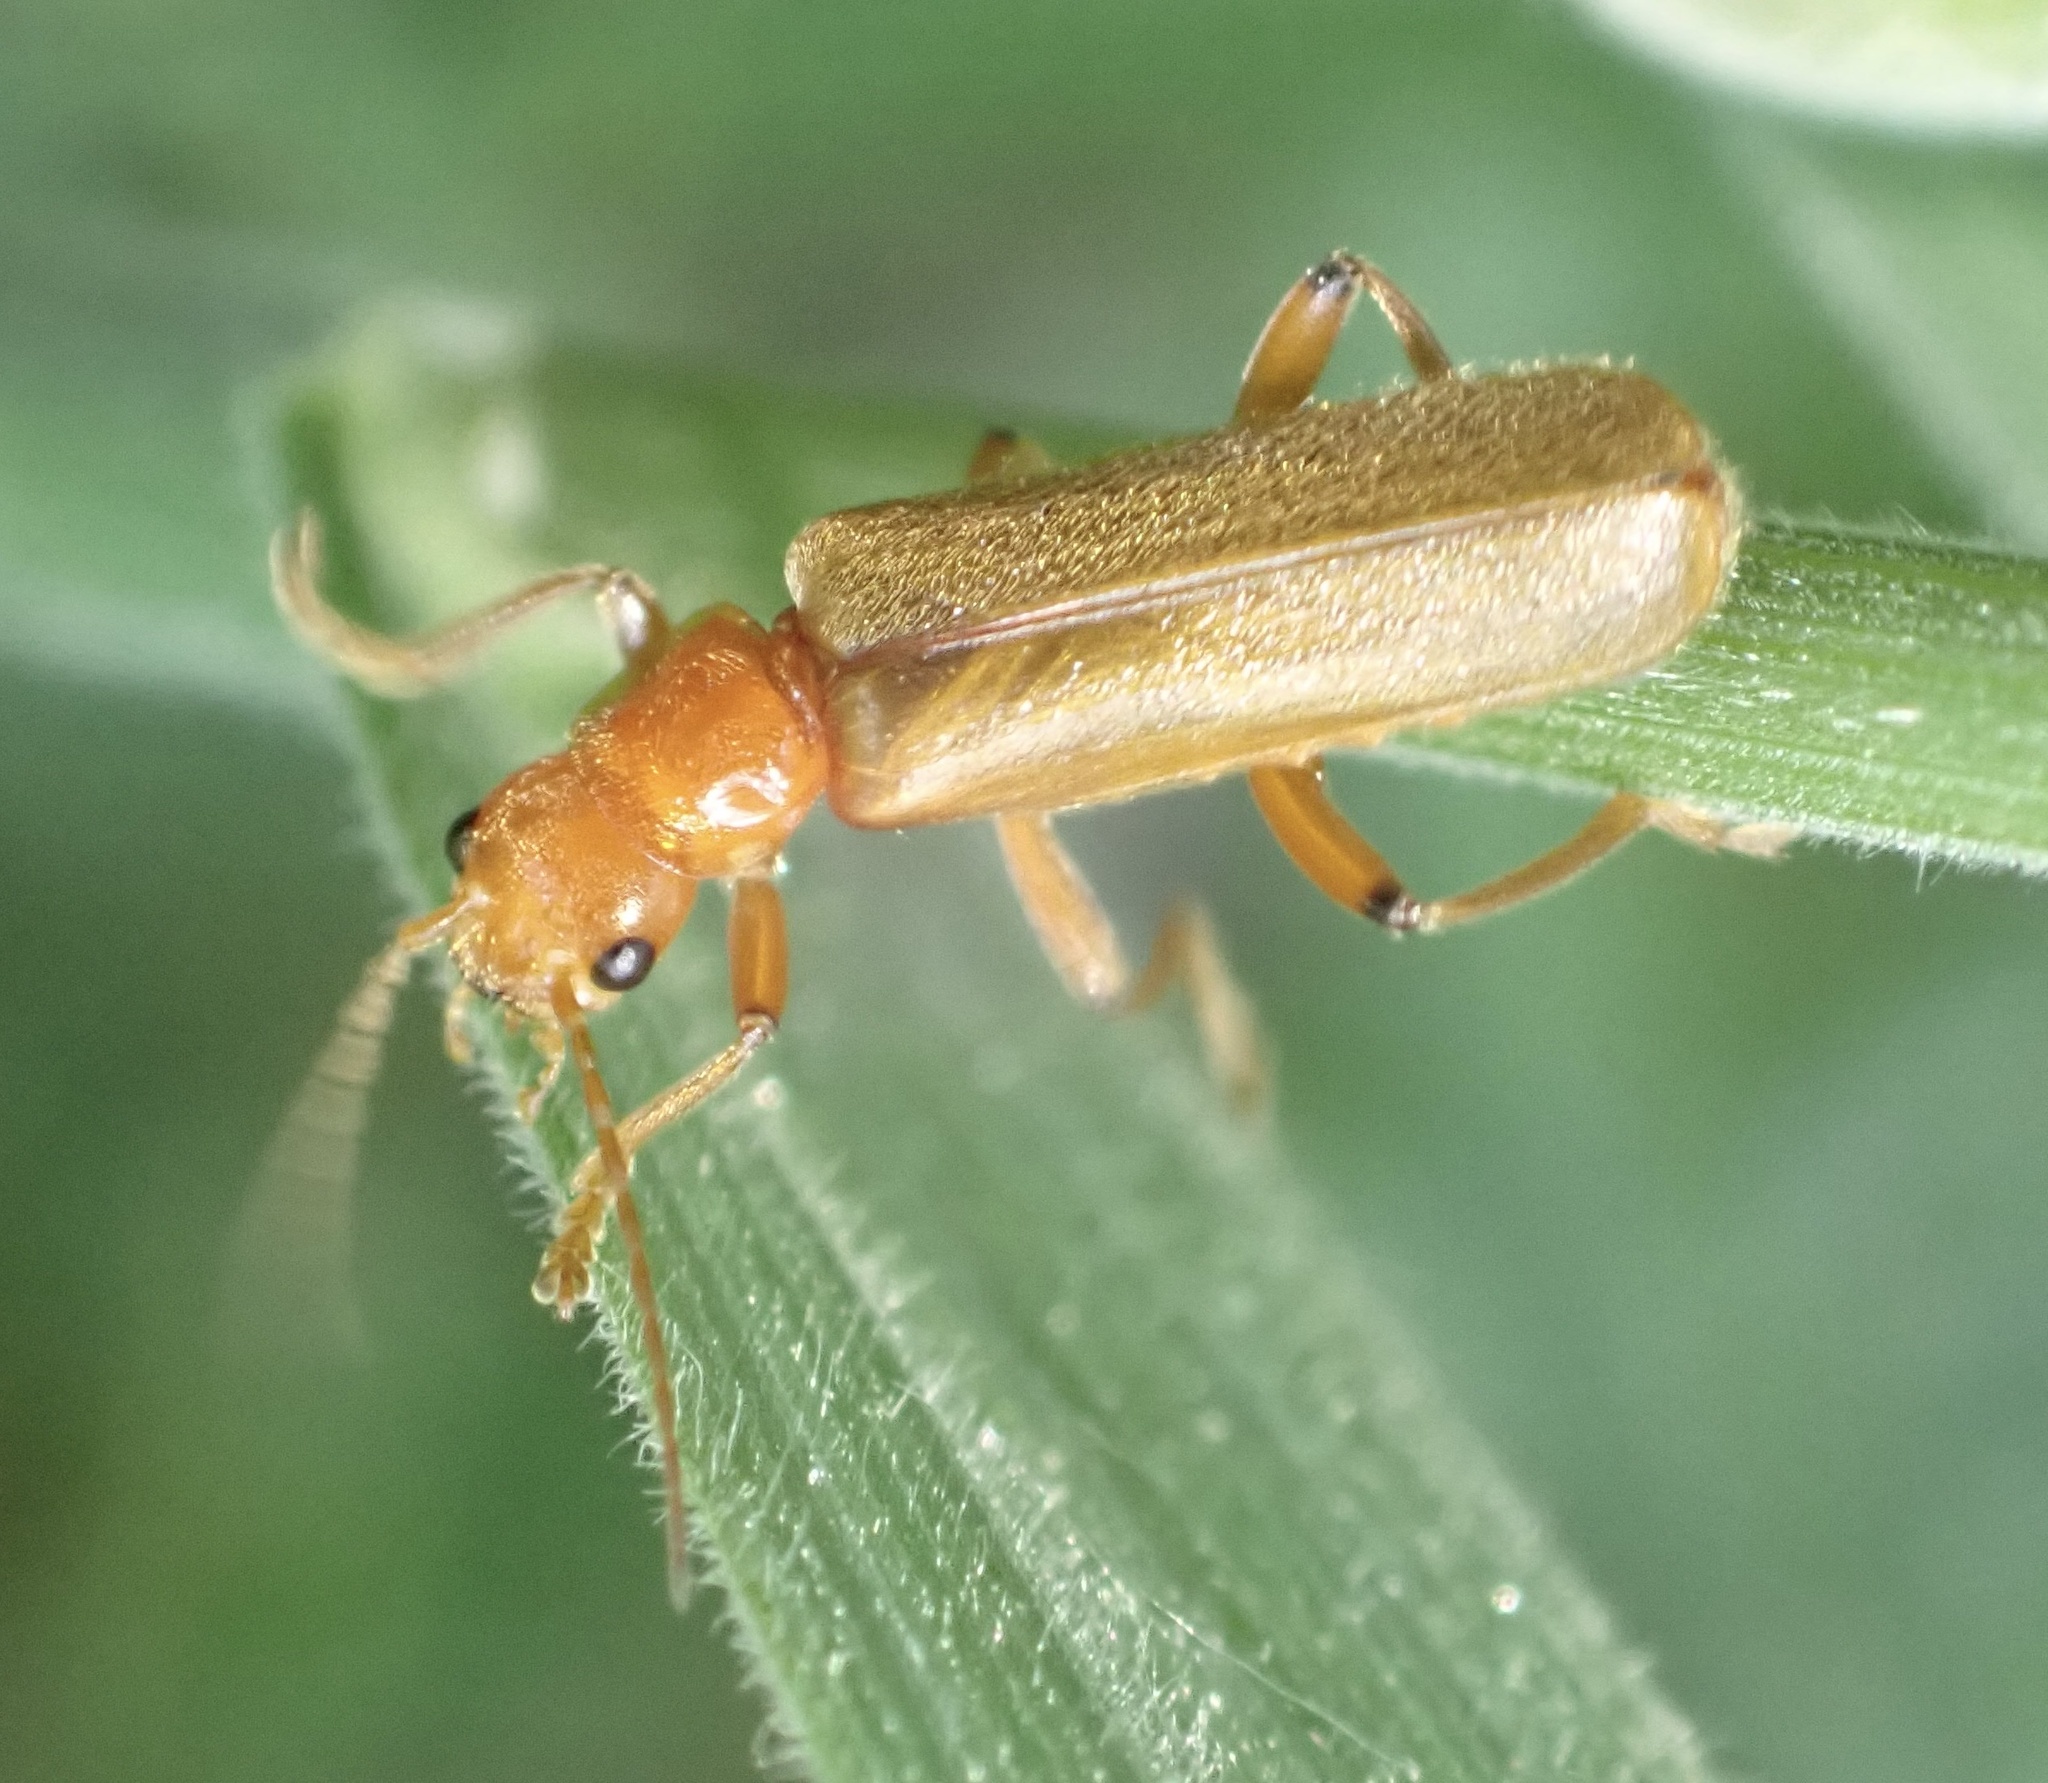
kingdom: Animalia
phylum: Arthropoda
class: Insecta
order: Coleoptera
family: Cantharidae
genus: Cantharis
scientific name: Cantharis cryptica
